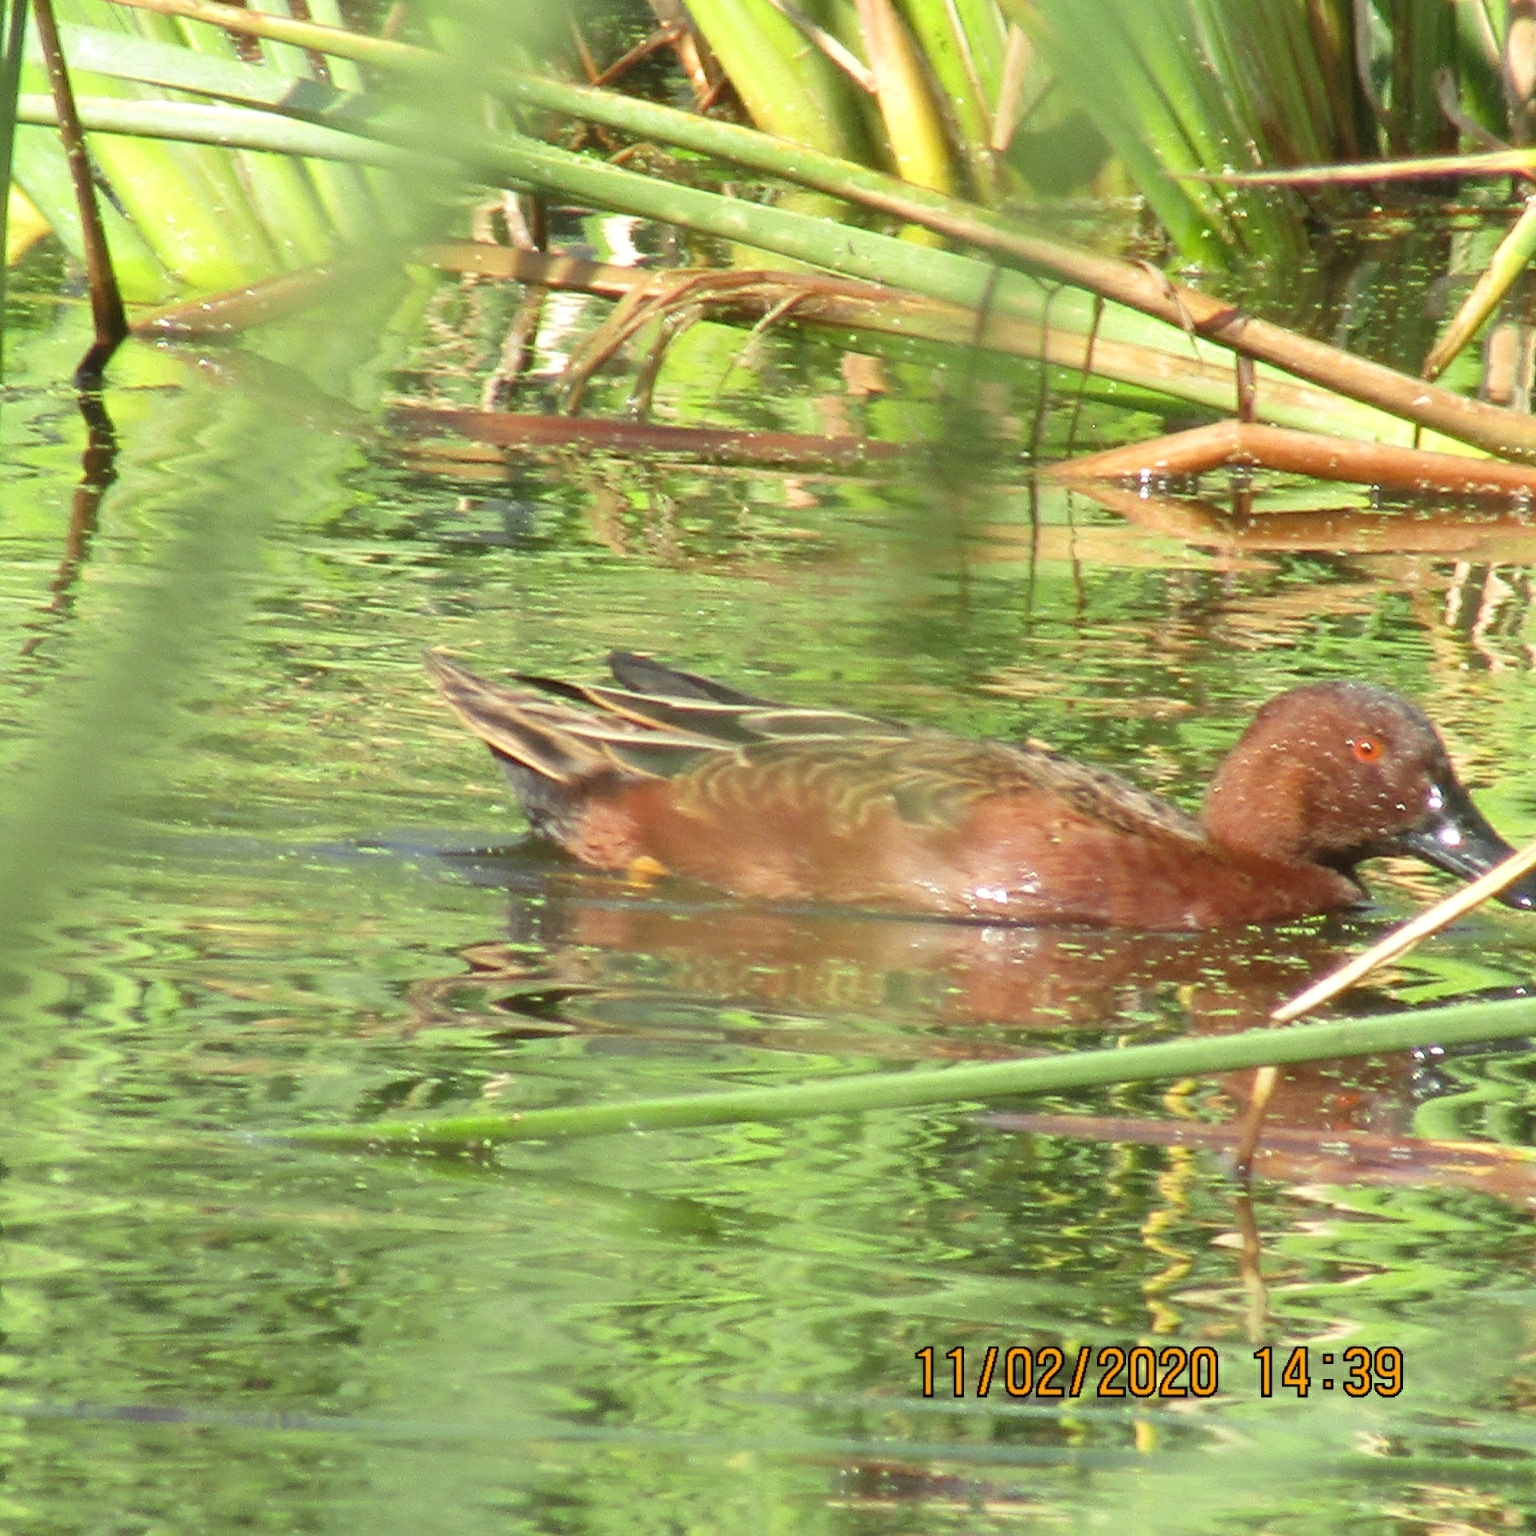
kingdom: Animalia
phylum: Chordata
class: Aves
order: Anseriformes
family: Anatidae
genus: Spatula
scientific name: Spatula cyanoptera
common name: Cinnamon teal
